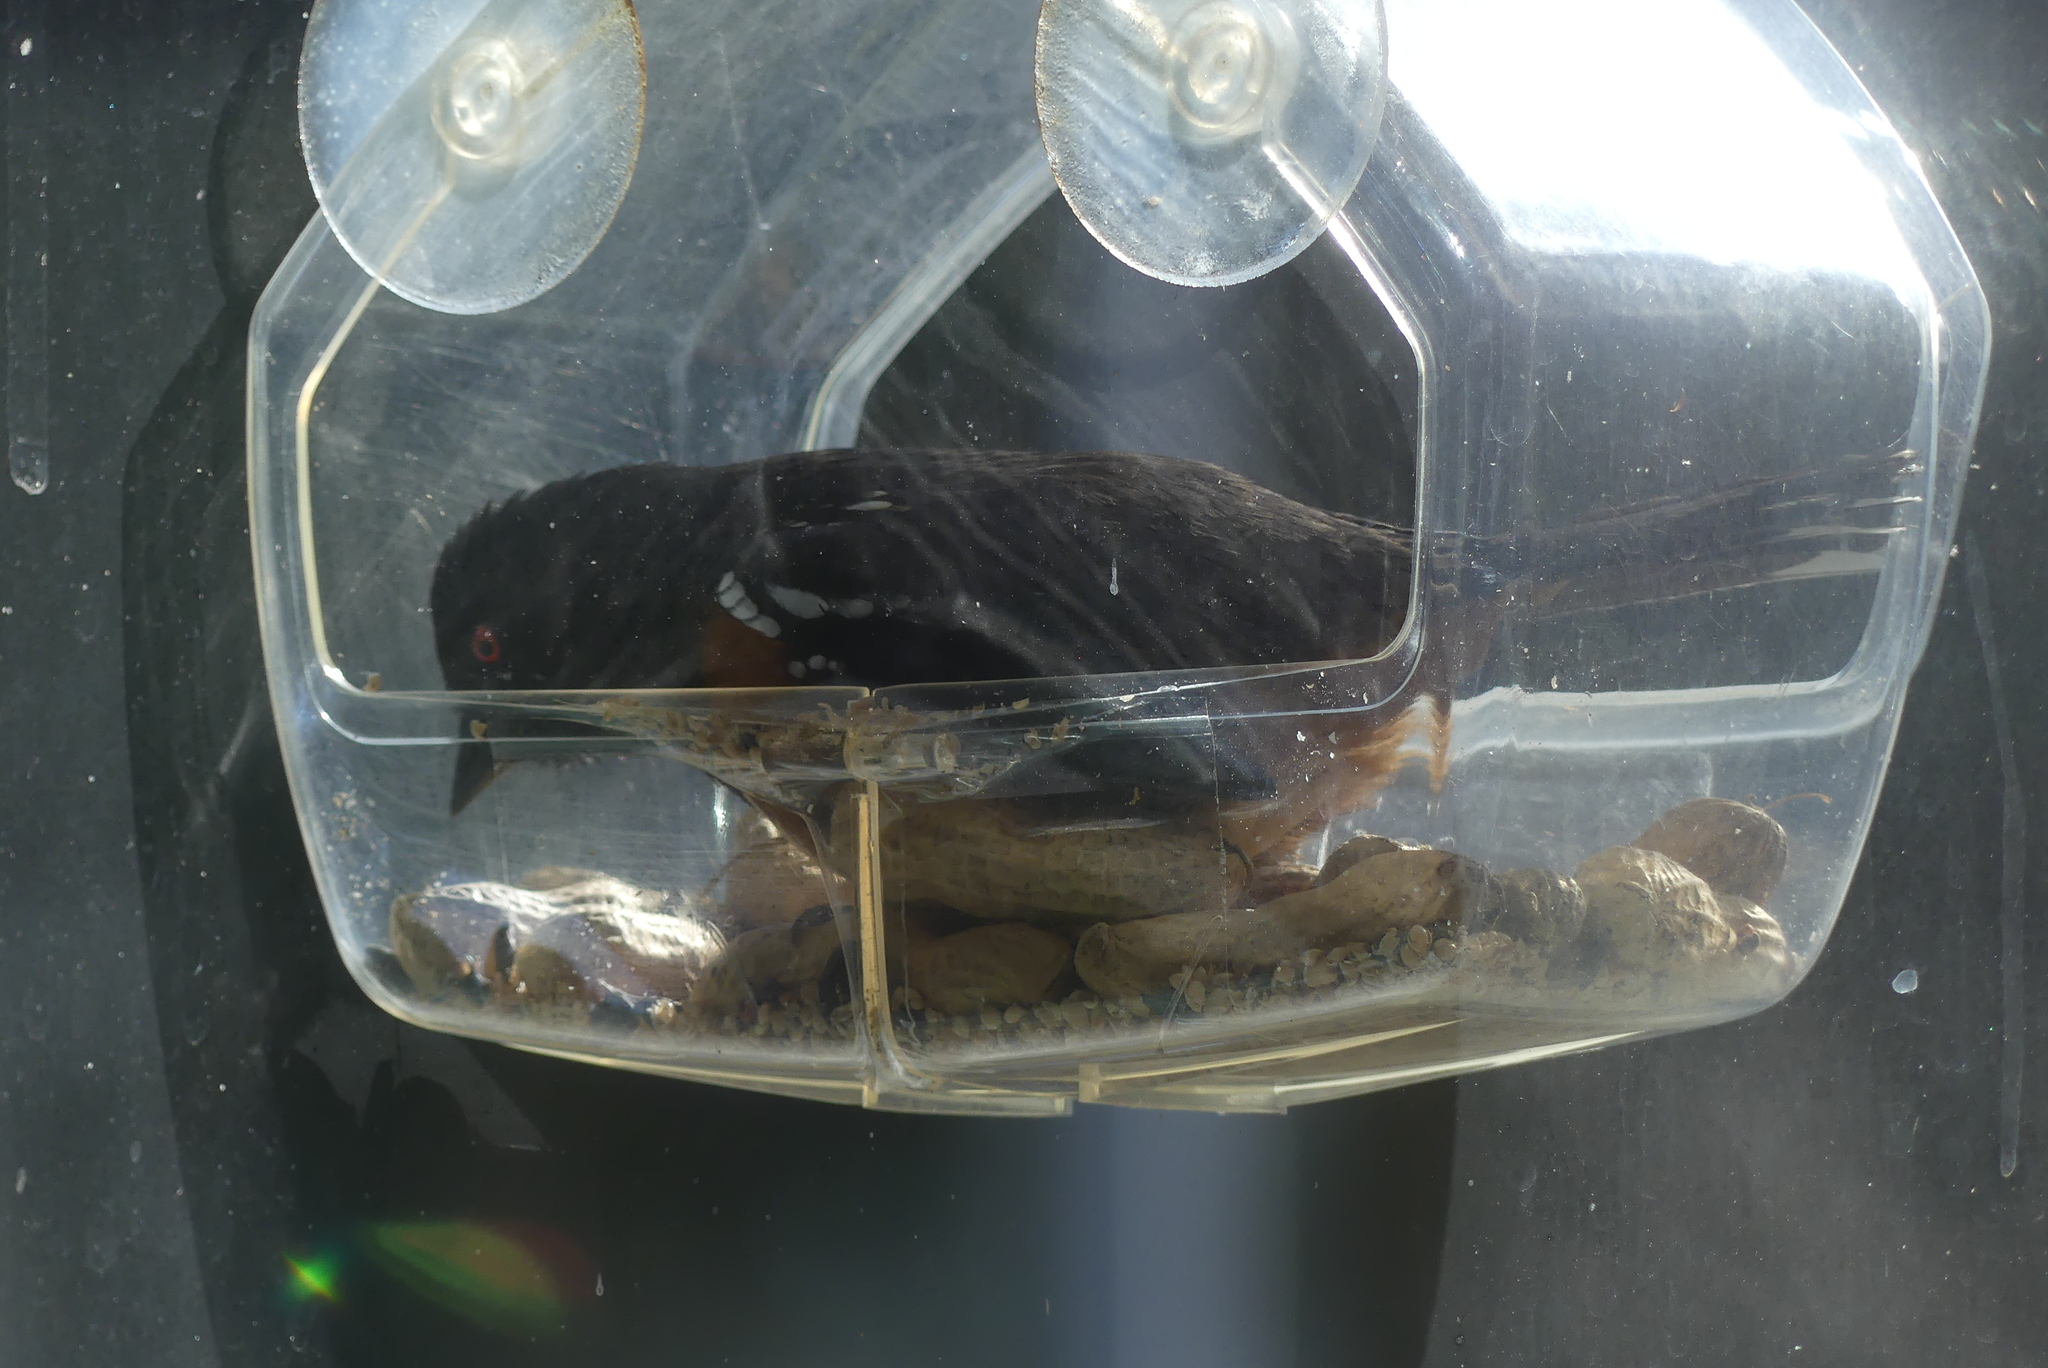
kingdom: Animalia
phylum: Chordata
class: Aves
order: Passeriformes
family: Passerellidae
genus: Pipilo
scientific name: Pipilo maculatus
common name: Spotted towhee
